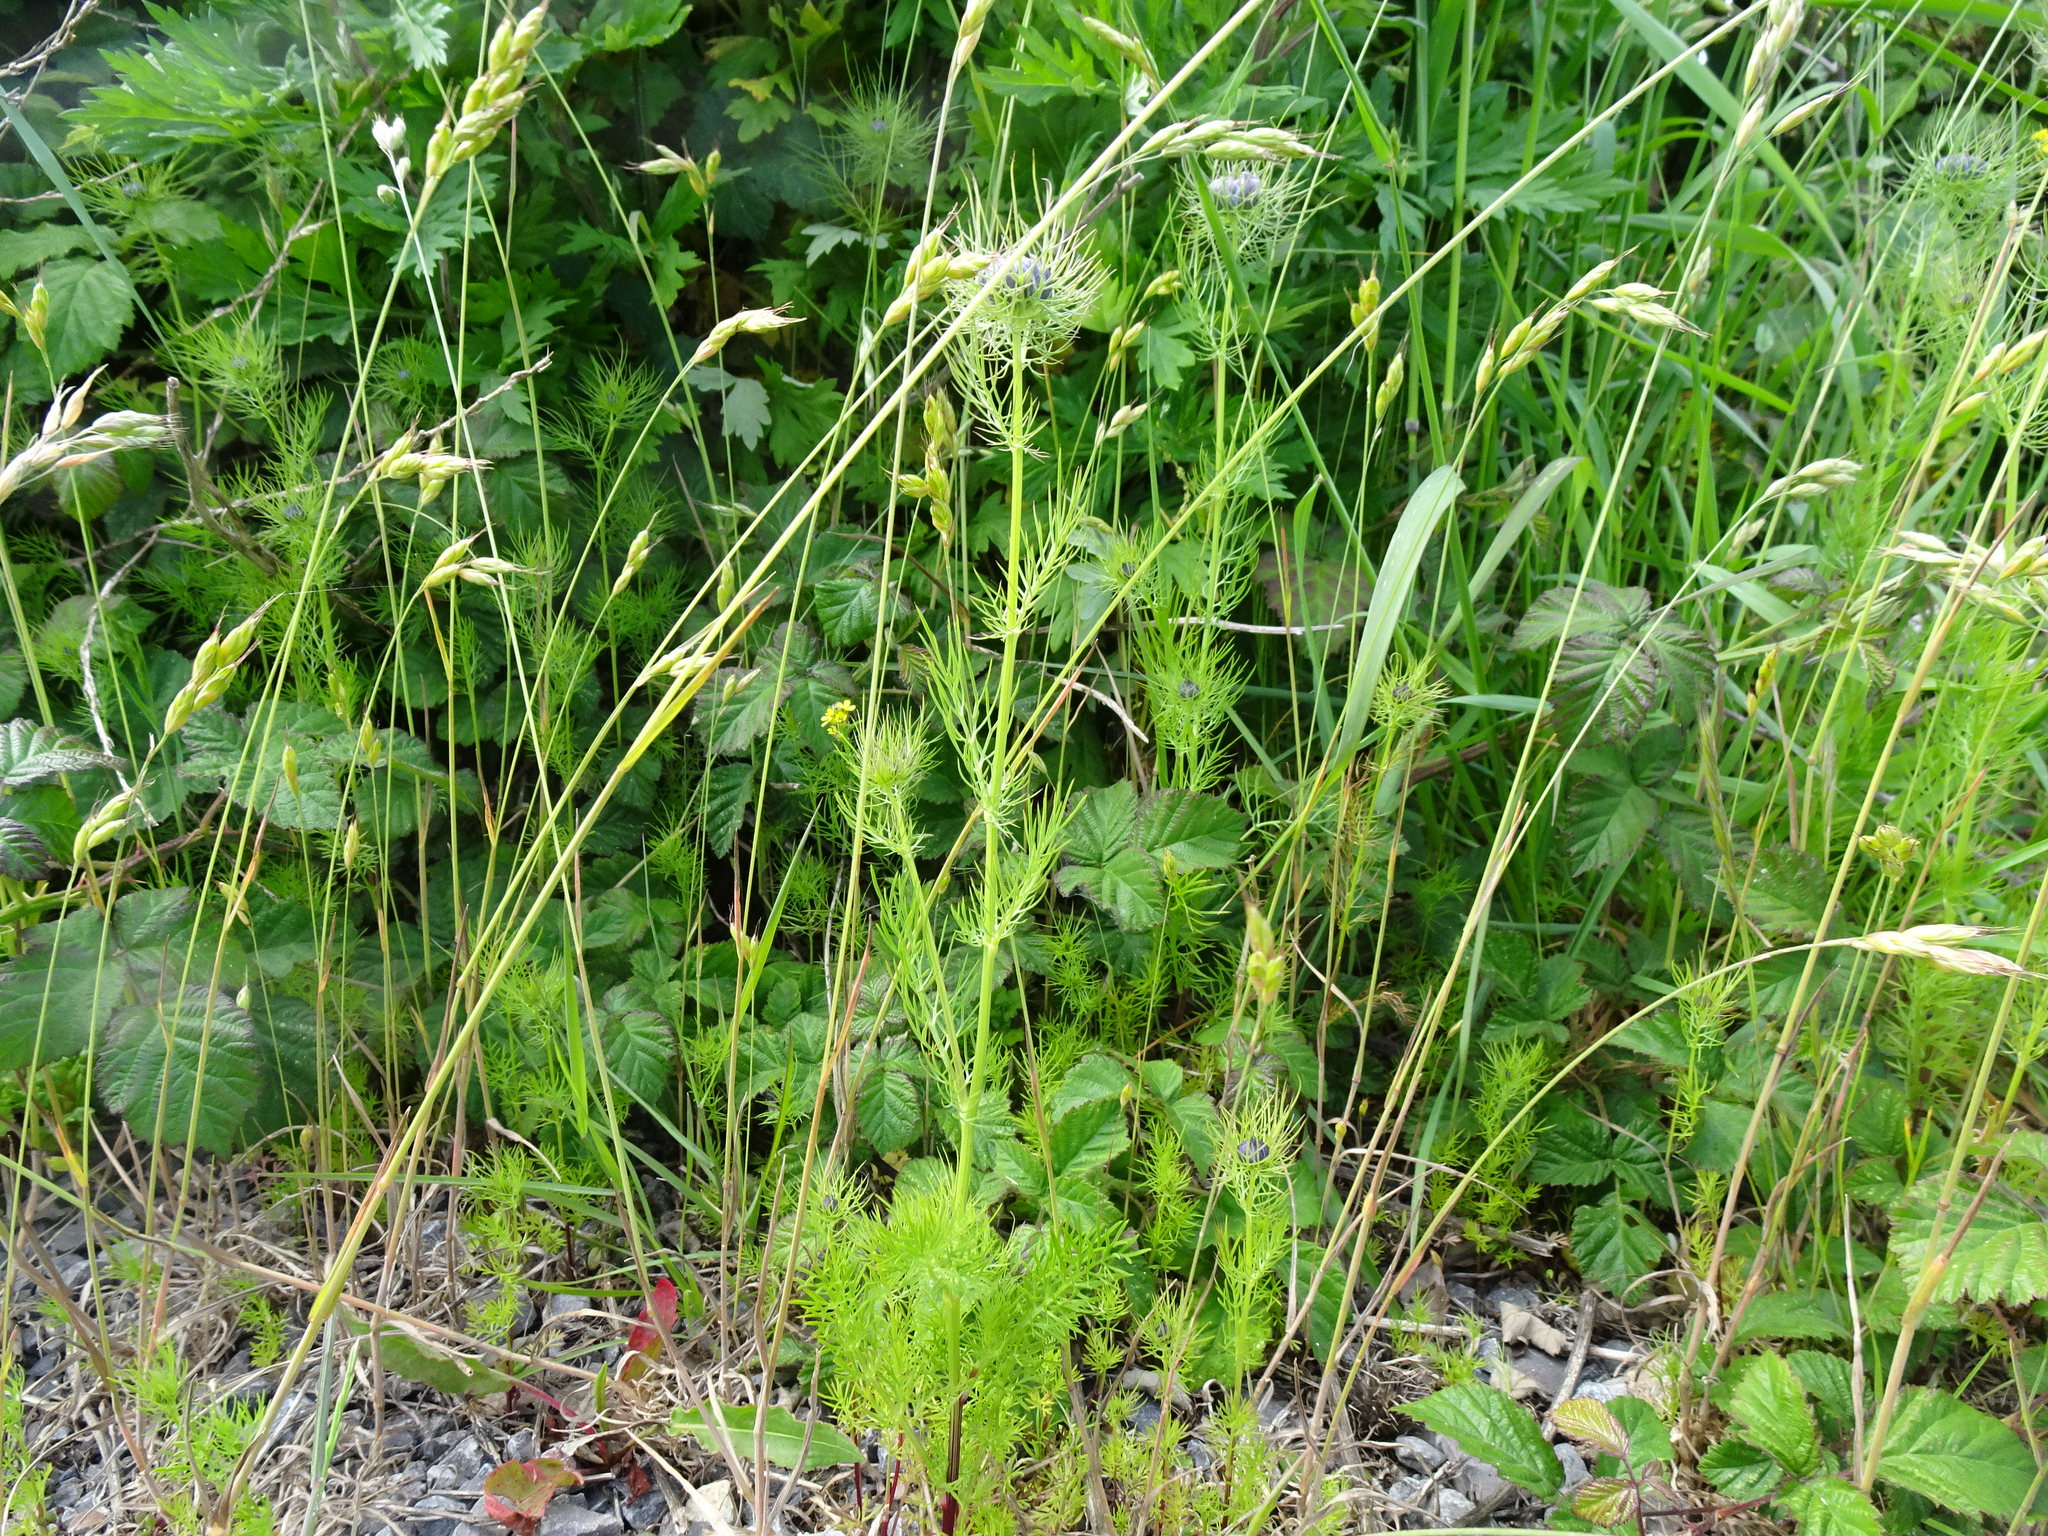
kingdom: Plantae
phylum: Tracheophyta
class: Magnoliopsida
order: Ranunculales
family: Ranunculaceae
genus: Nigella
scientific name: Nigella damascena
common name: Love-in-a-mist
